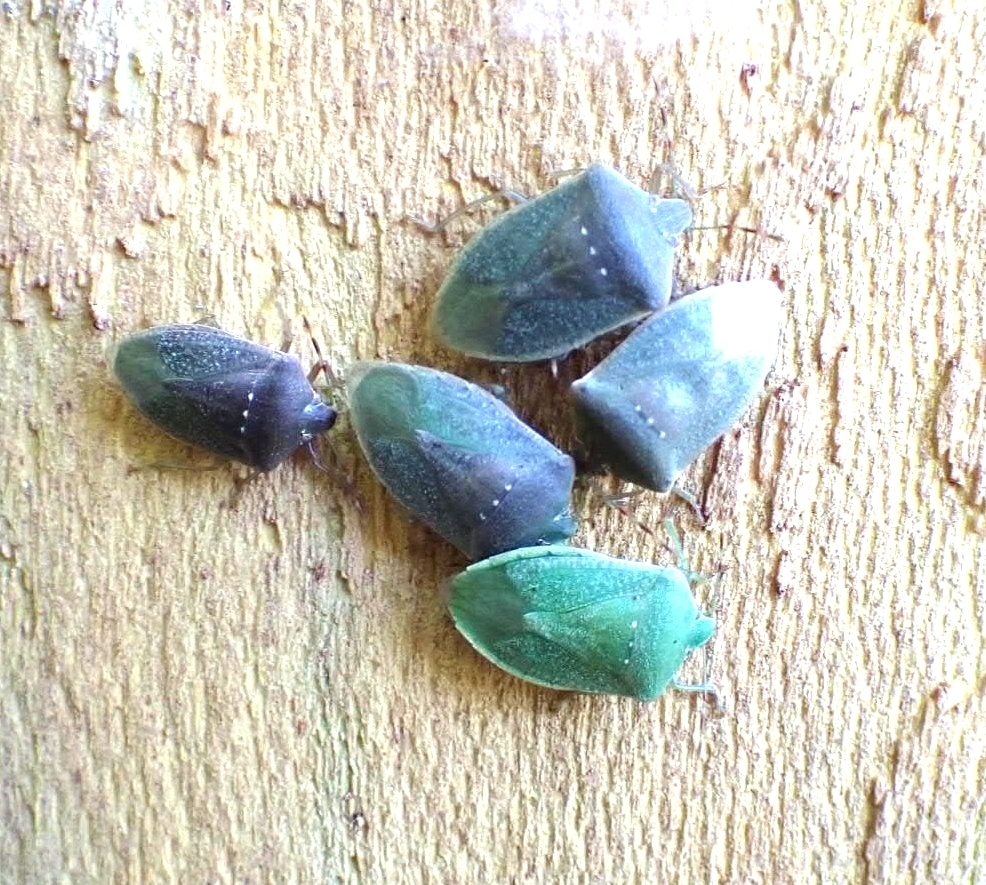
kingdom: Animalia
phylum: Arthropoda
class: Insecta
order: Hemiptera
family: Pentatomidae
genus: Nezara
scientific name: Nezara viridula
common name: Southern green stink bug
